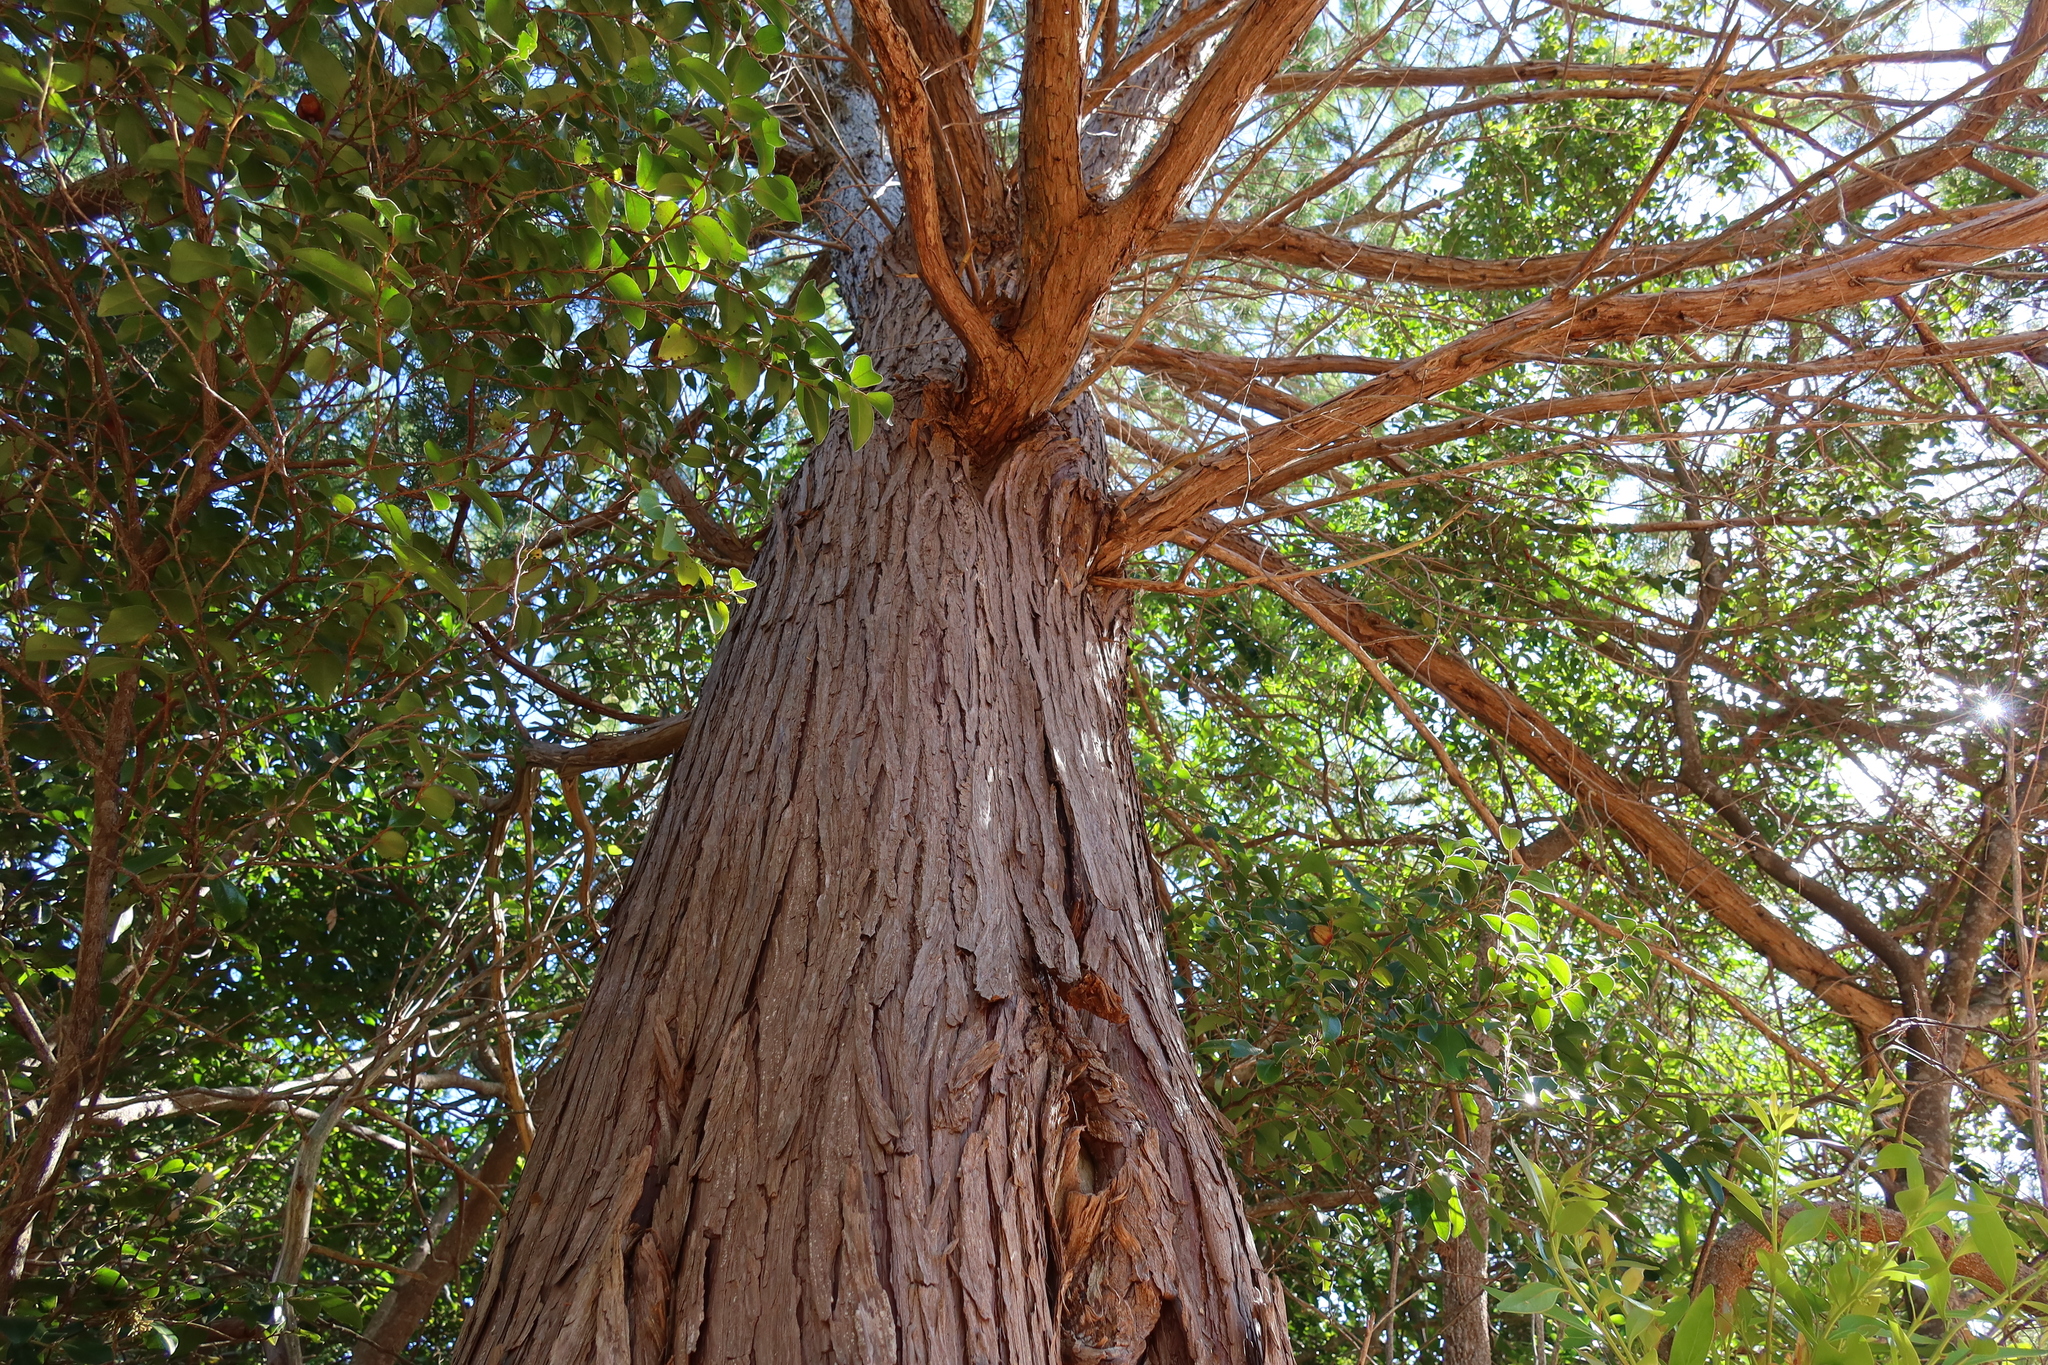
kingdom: Plantae
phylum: Tracheophyta
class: Pinopsida
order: Pinales
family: Cupressaceae
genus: Widdringtonia
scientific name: Widdringtonia nodiflora
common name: Cape cypress
